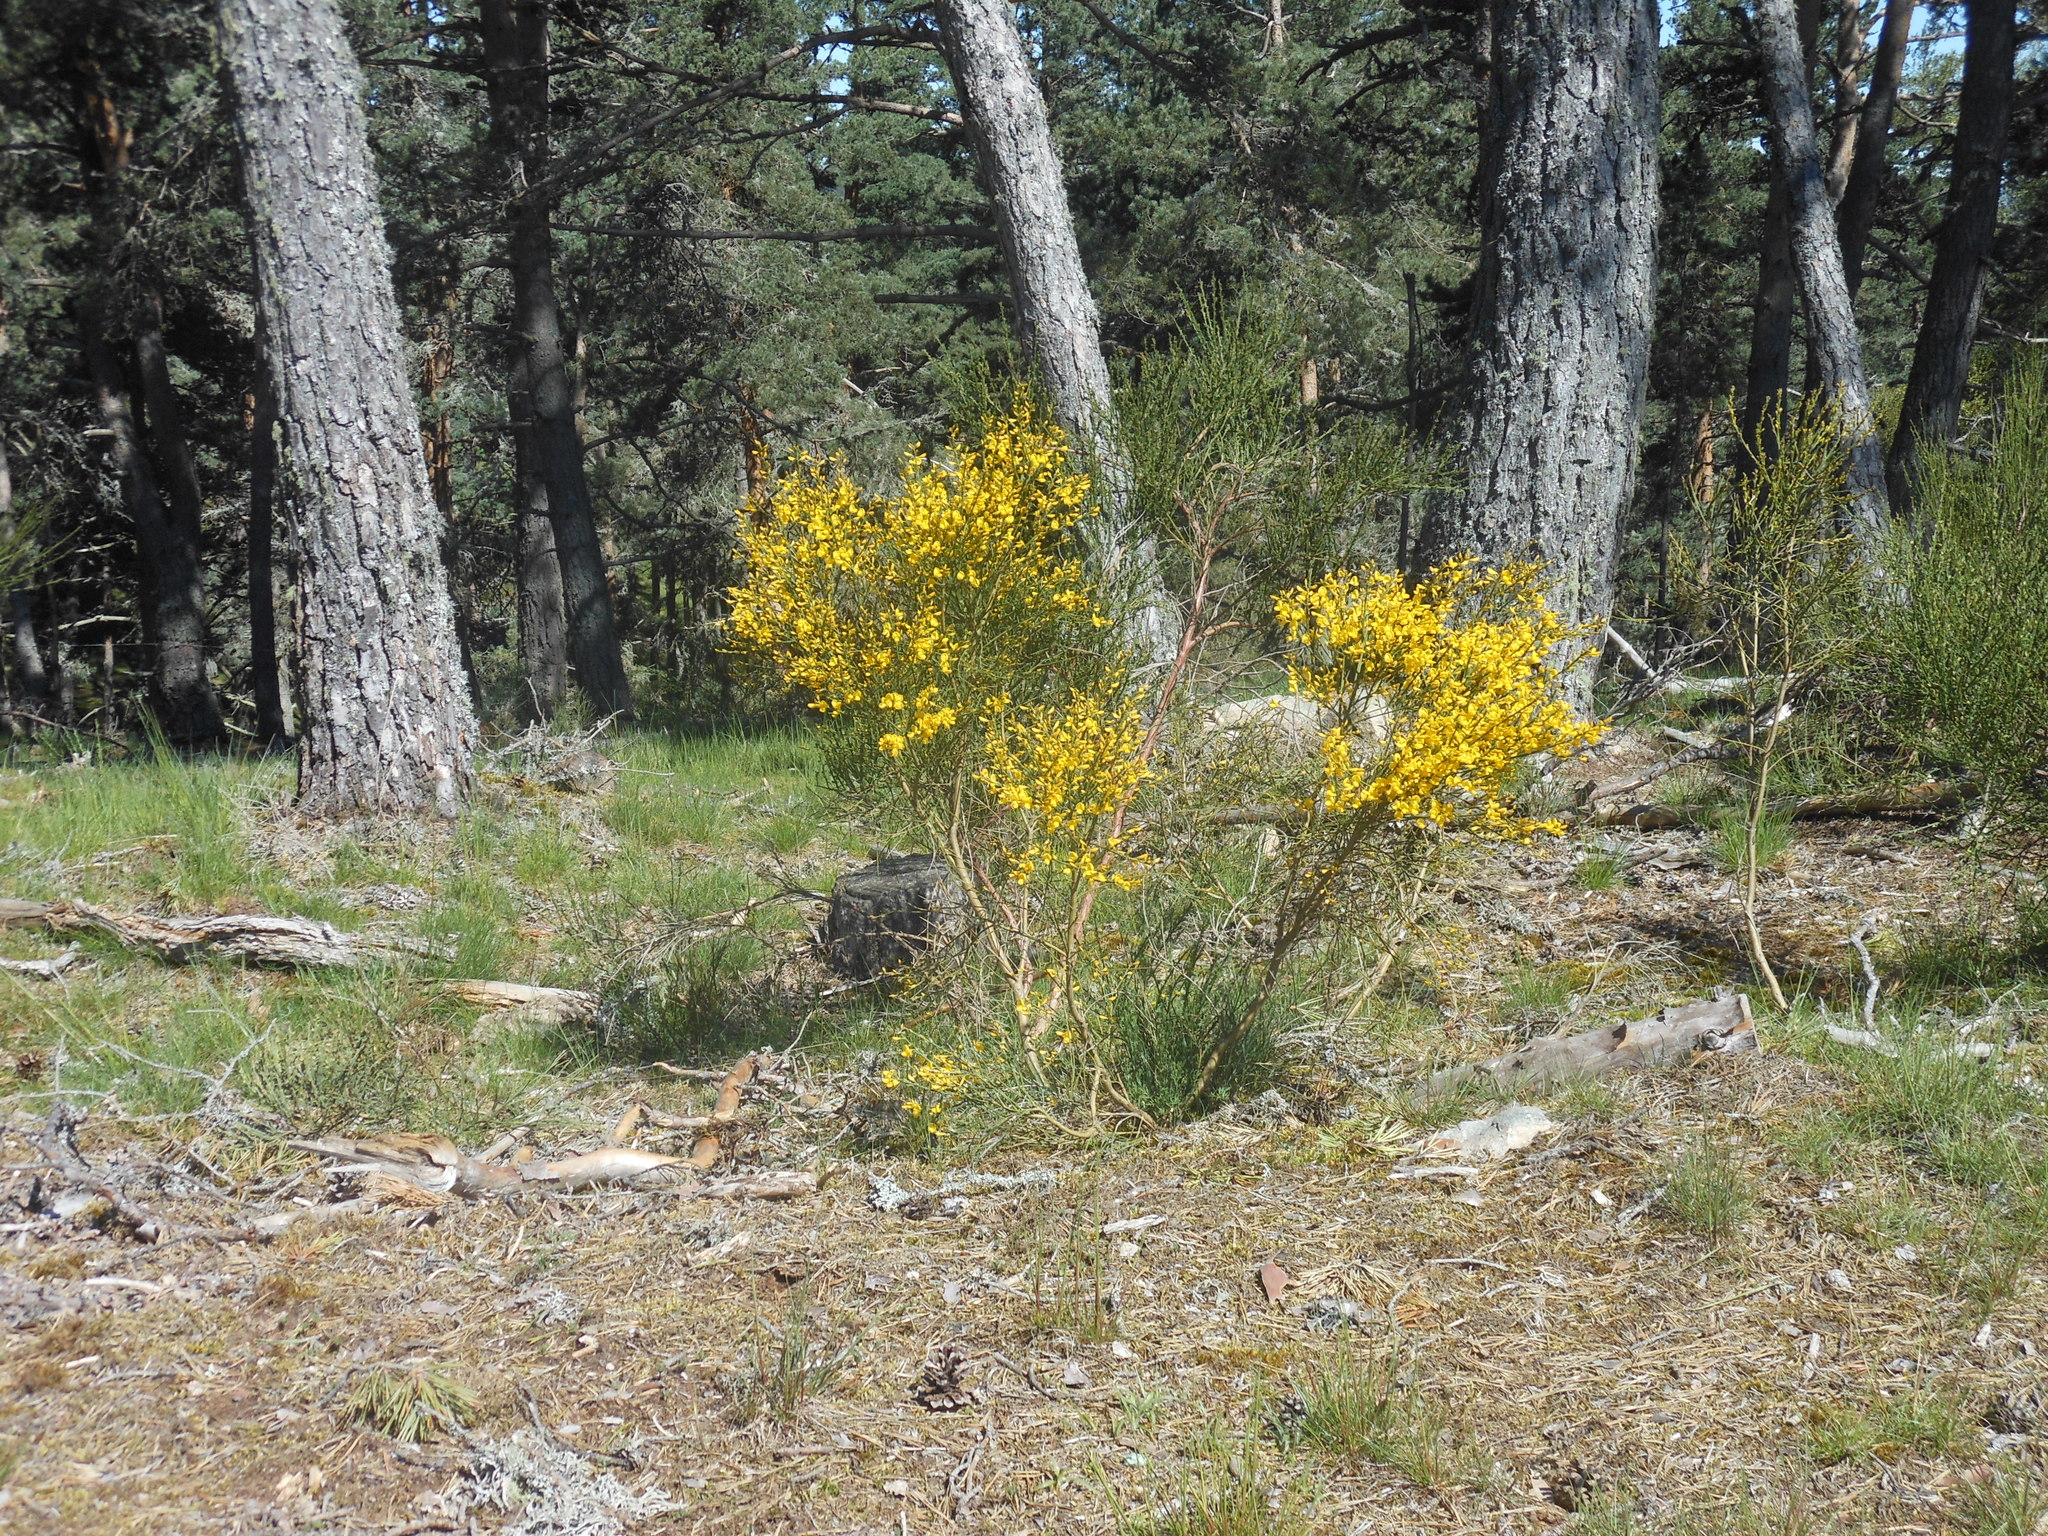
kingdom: Plantae
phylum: Tracheophyta
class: Magnoliopsida
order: Fabales
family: Fabaceae
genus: Cytisus
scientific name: Cytisus scoparius
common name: Scotch broom
